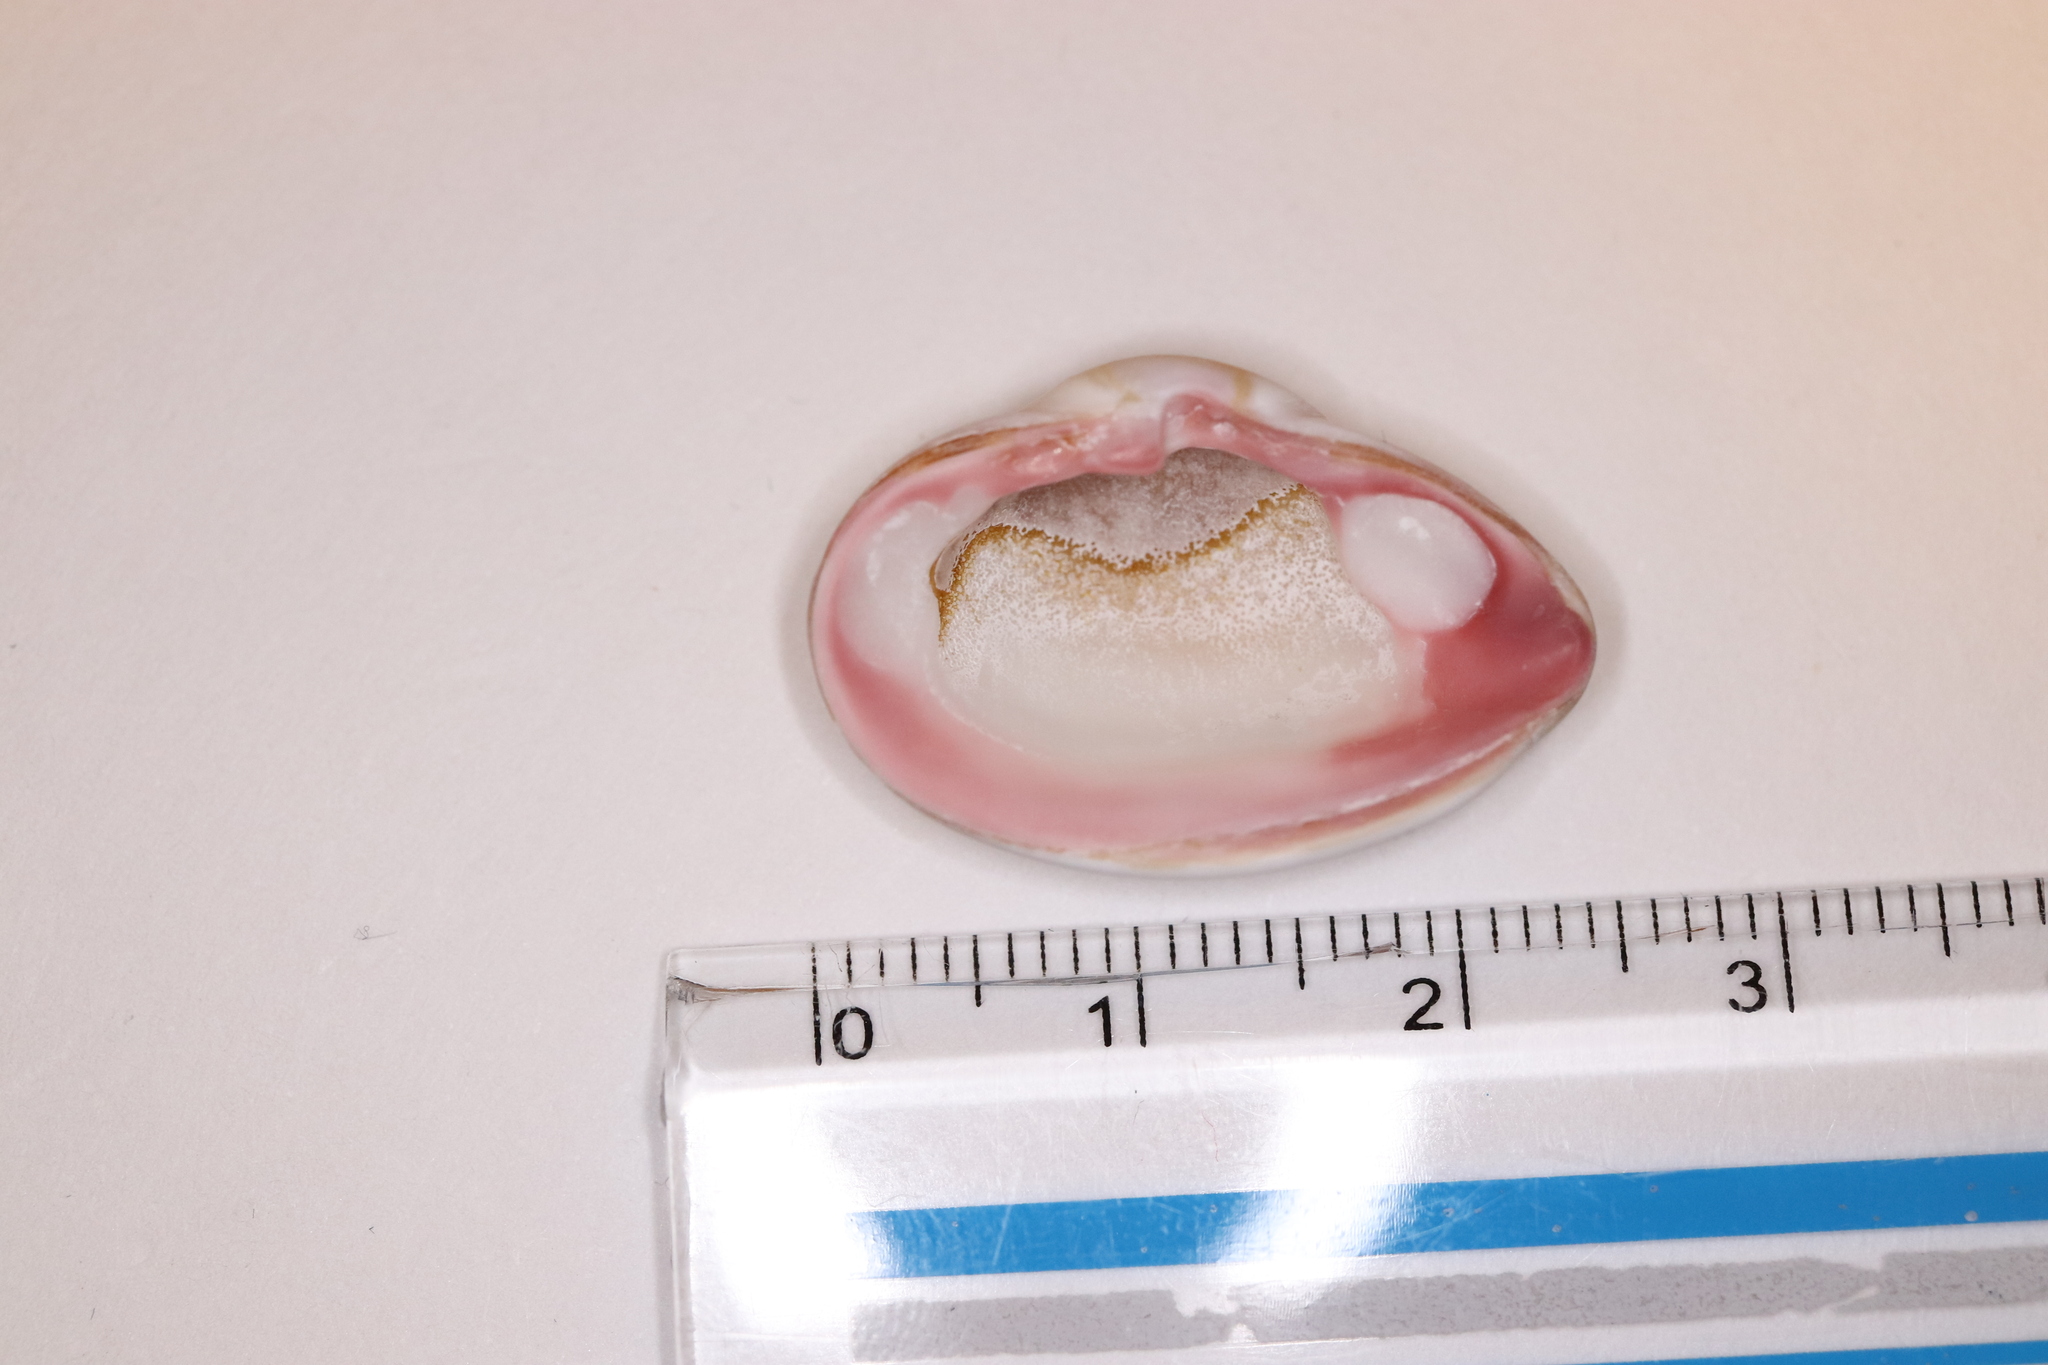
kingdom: Animalia
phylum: Mollusca
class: Bivalvia
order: Myida
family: Corbulidae
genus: Corbula
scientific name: Corbula erythrodon
